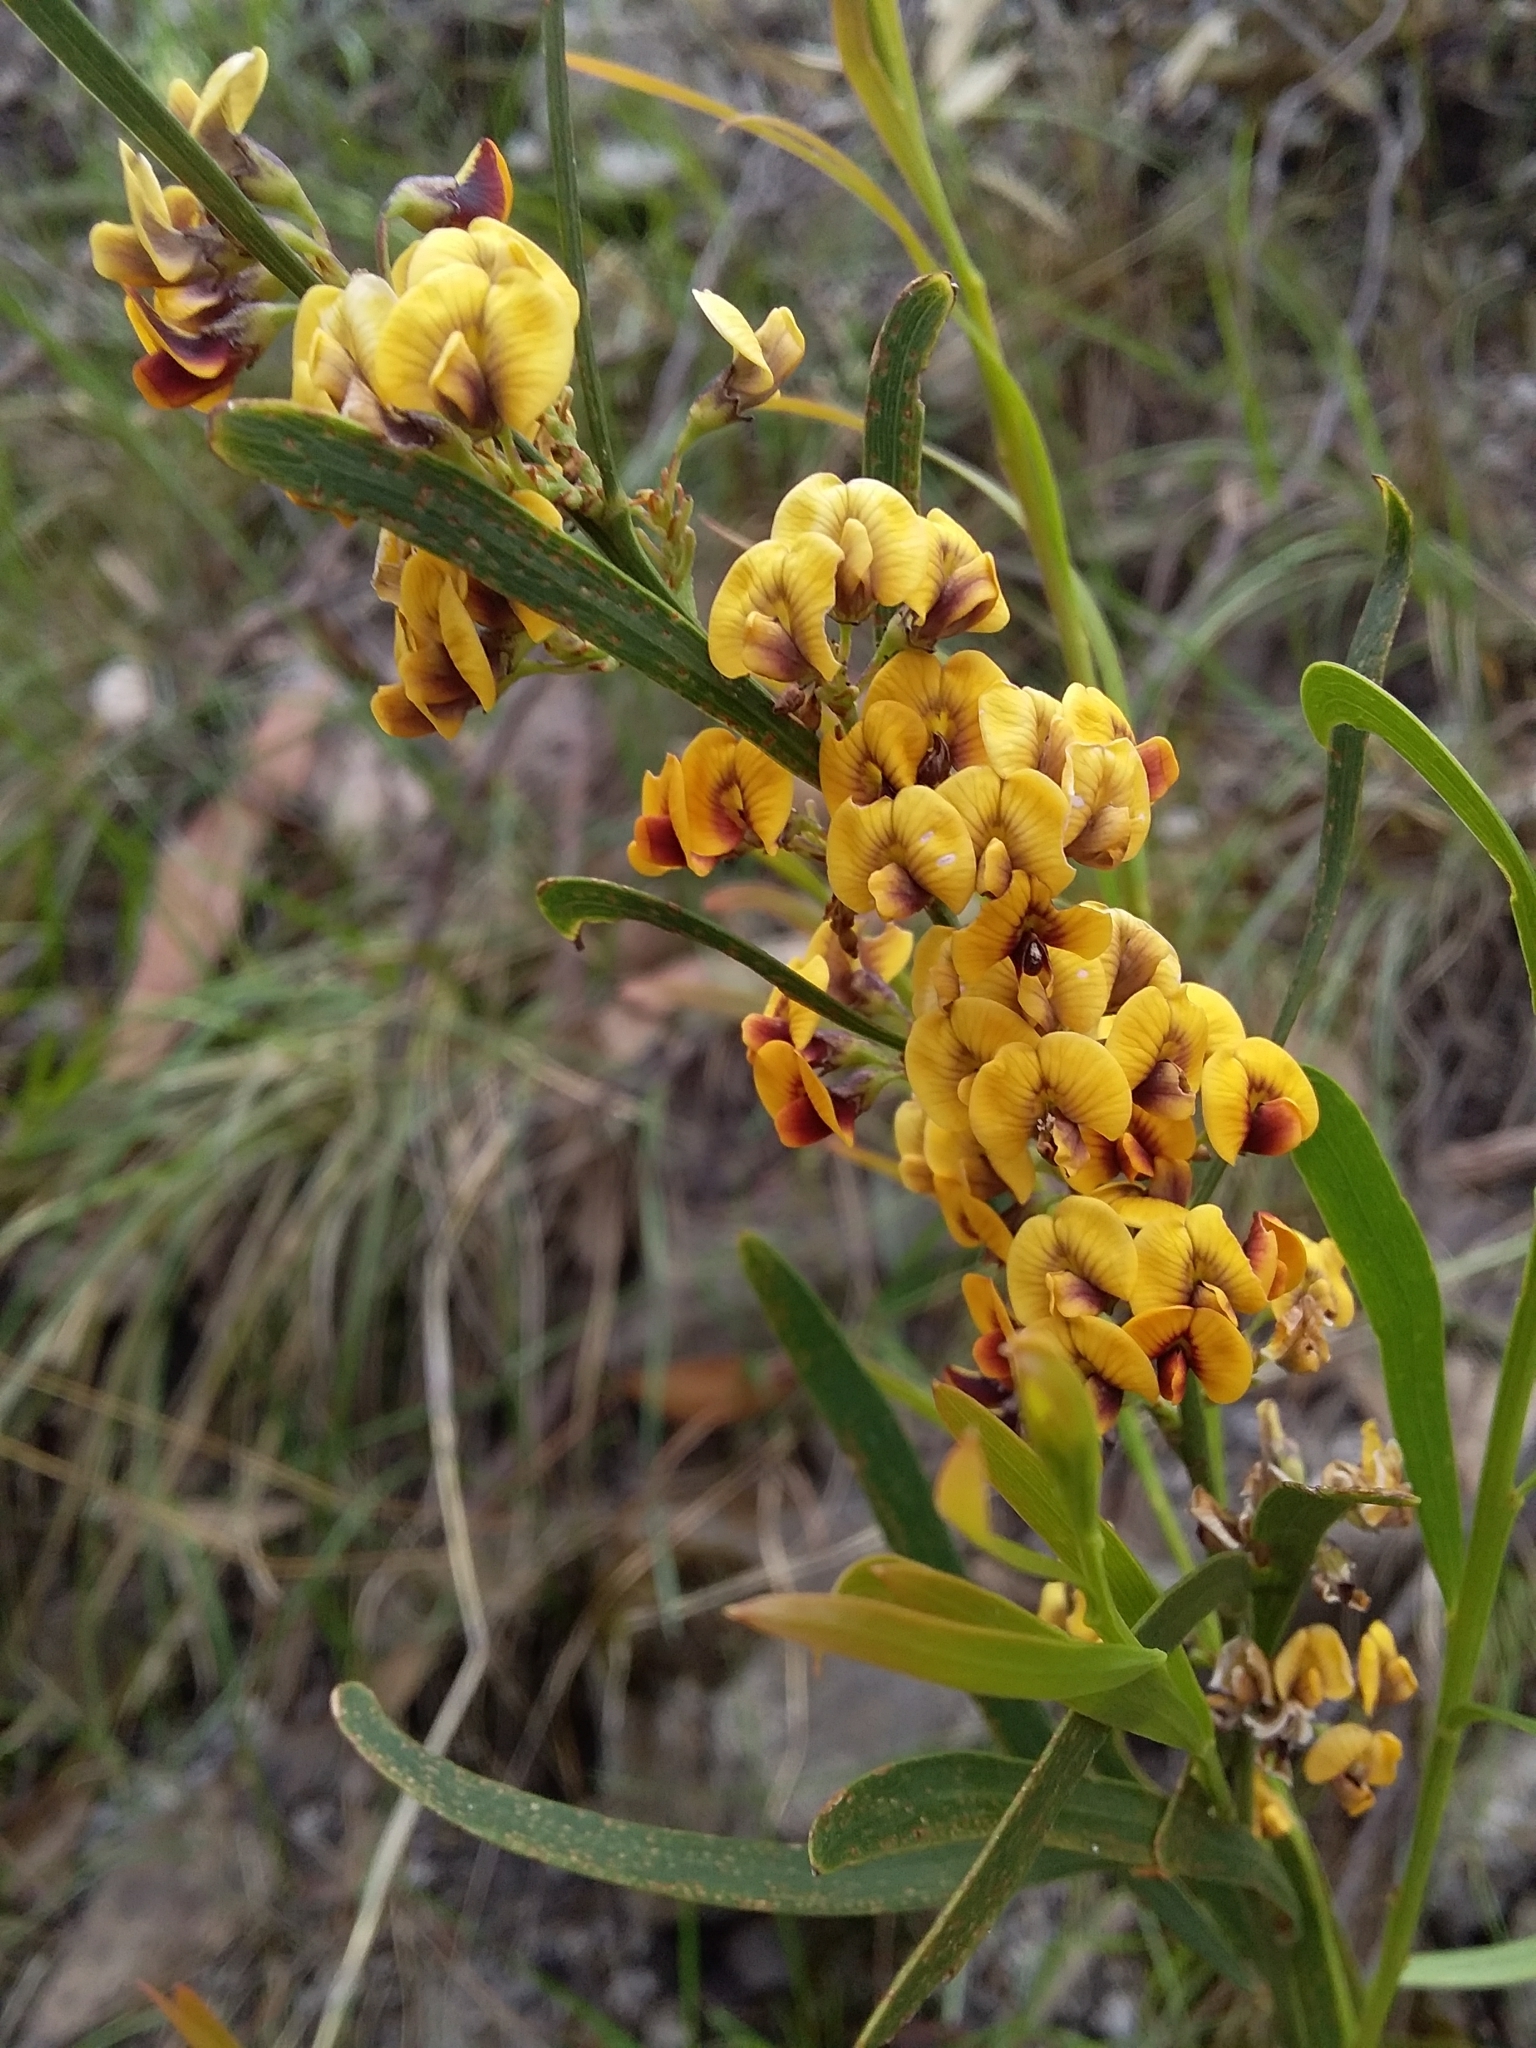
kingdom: Plantae
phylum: Tracheophyta
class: Magnoliopsida
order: Fabales
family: Fabaceae
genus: Daviesia
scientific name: Daviesia leptophylla
